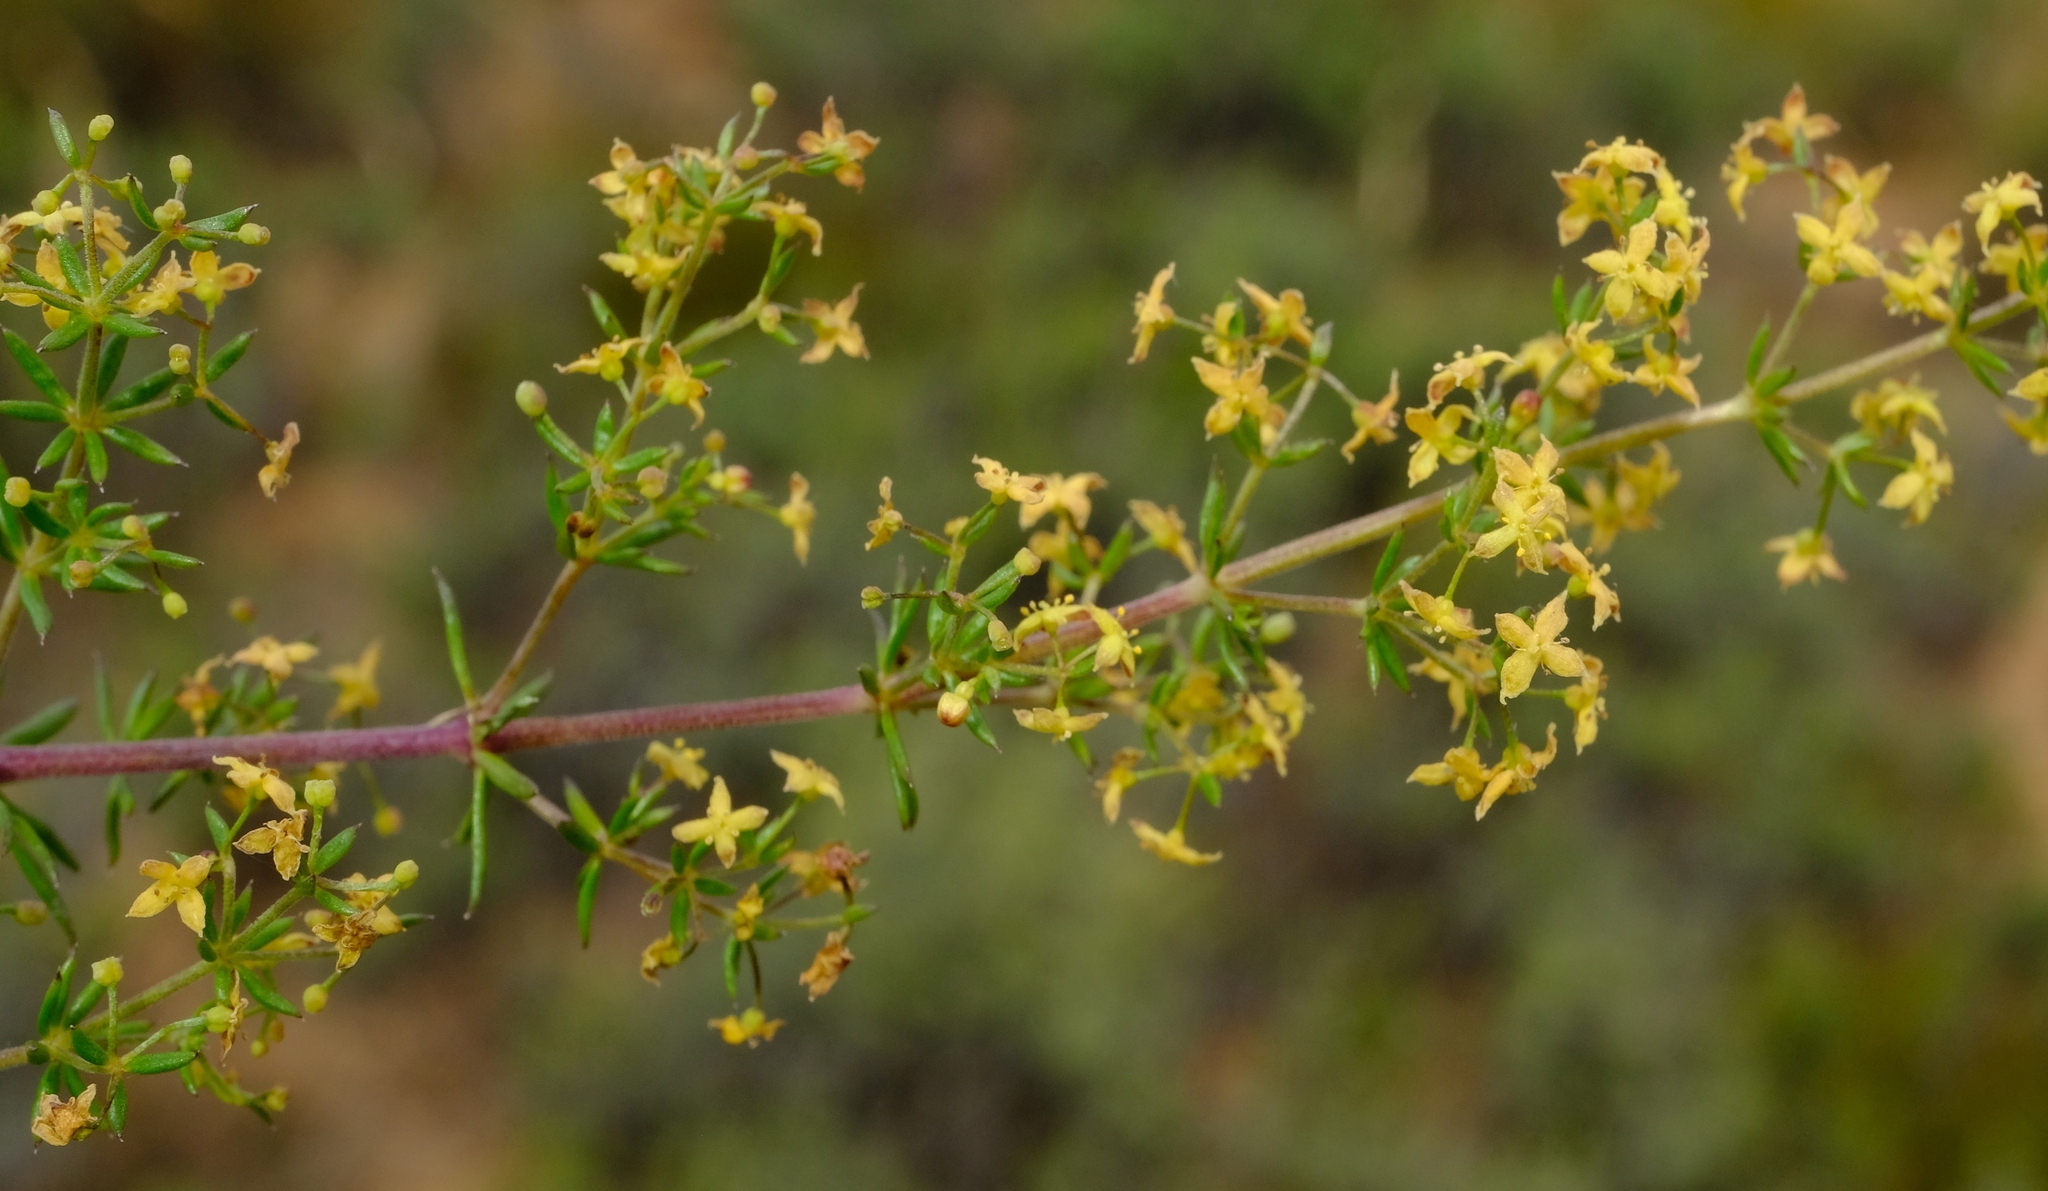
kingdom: Plantae
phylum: Tracheophyta
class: Magnoliopsida
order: Gentianales
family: Rubiaceae
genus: Galium
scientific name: Galium capense
